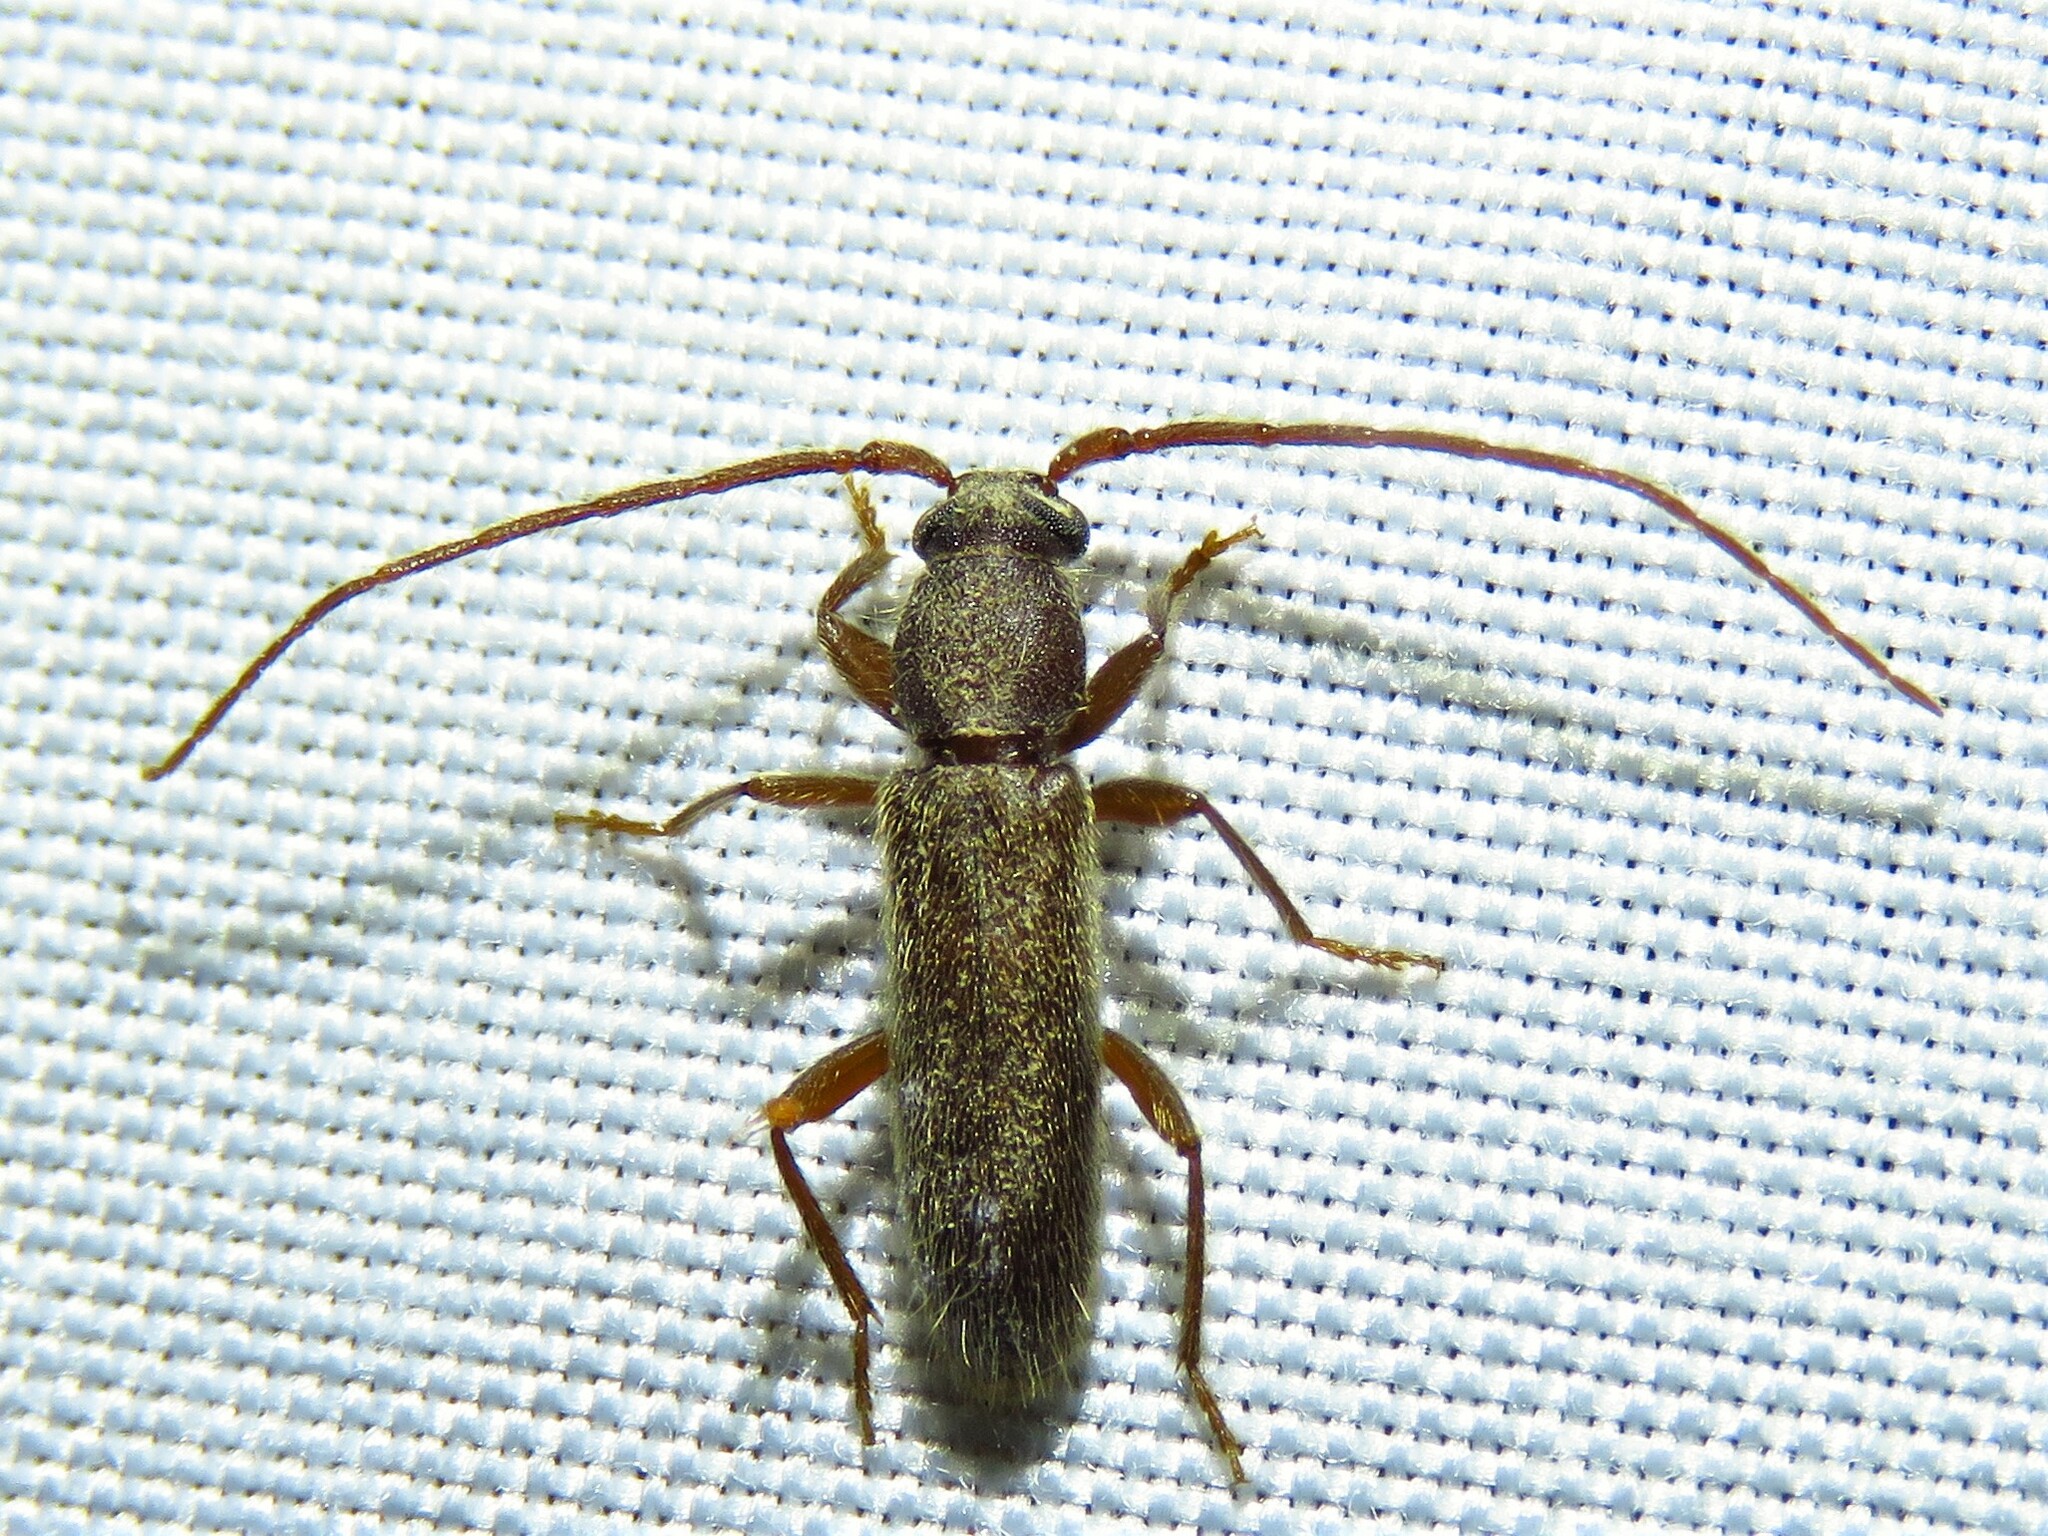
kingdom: Animalia
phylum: Arthropoda
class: Insecta
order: Coleoptera
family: Cerambycidae
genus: Geropa
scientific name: Geropa concolor
